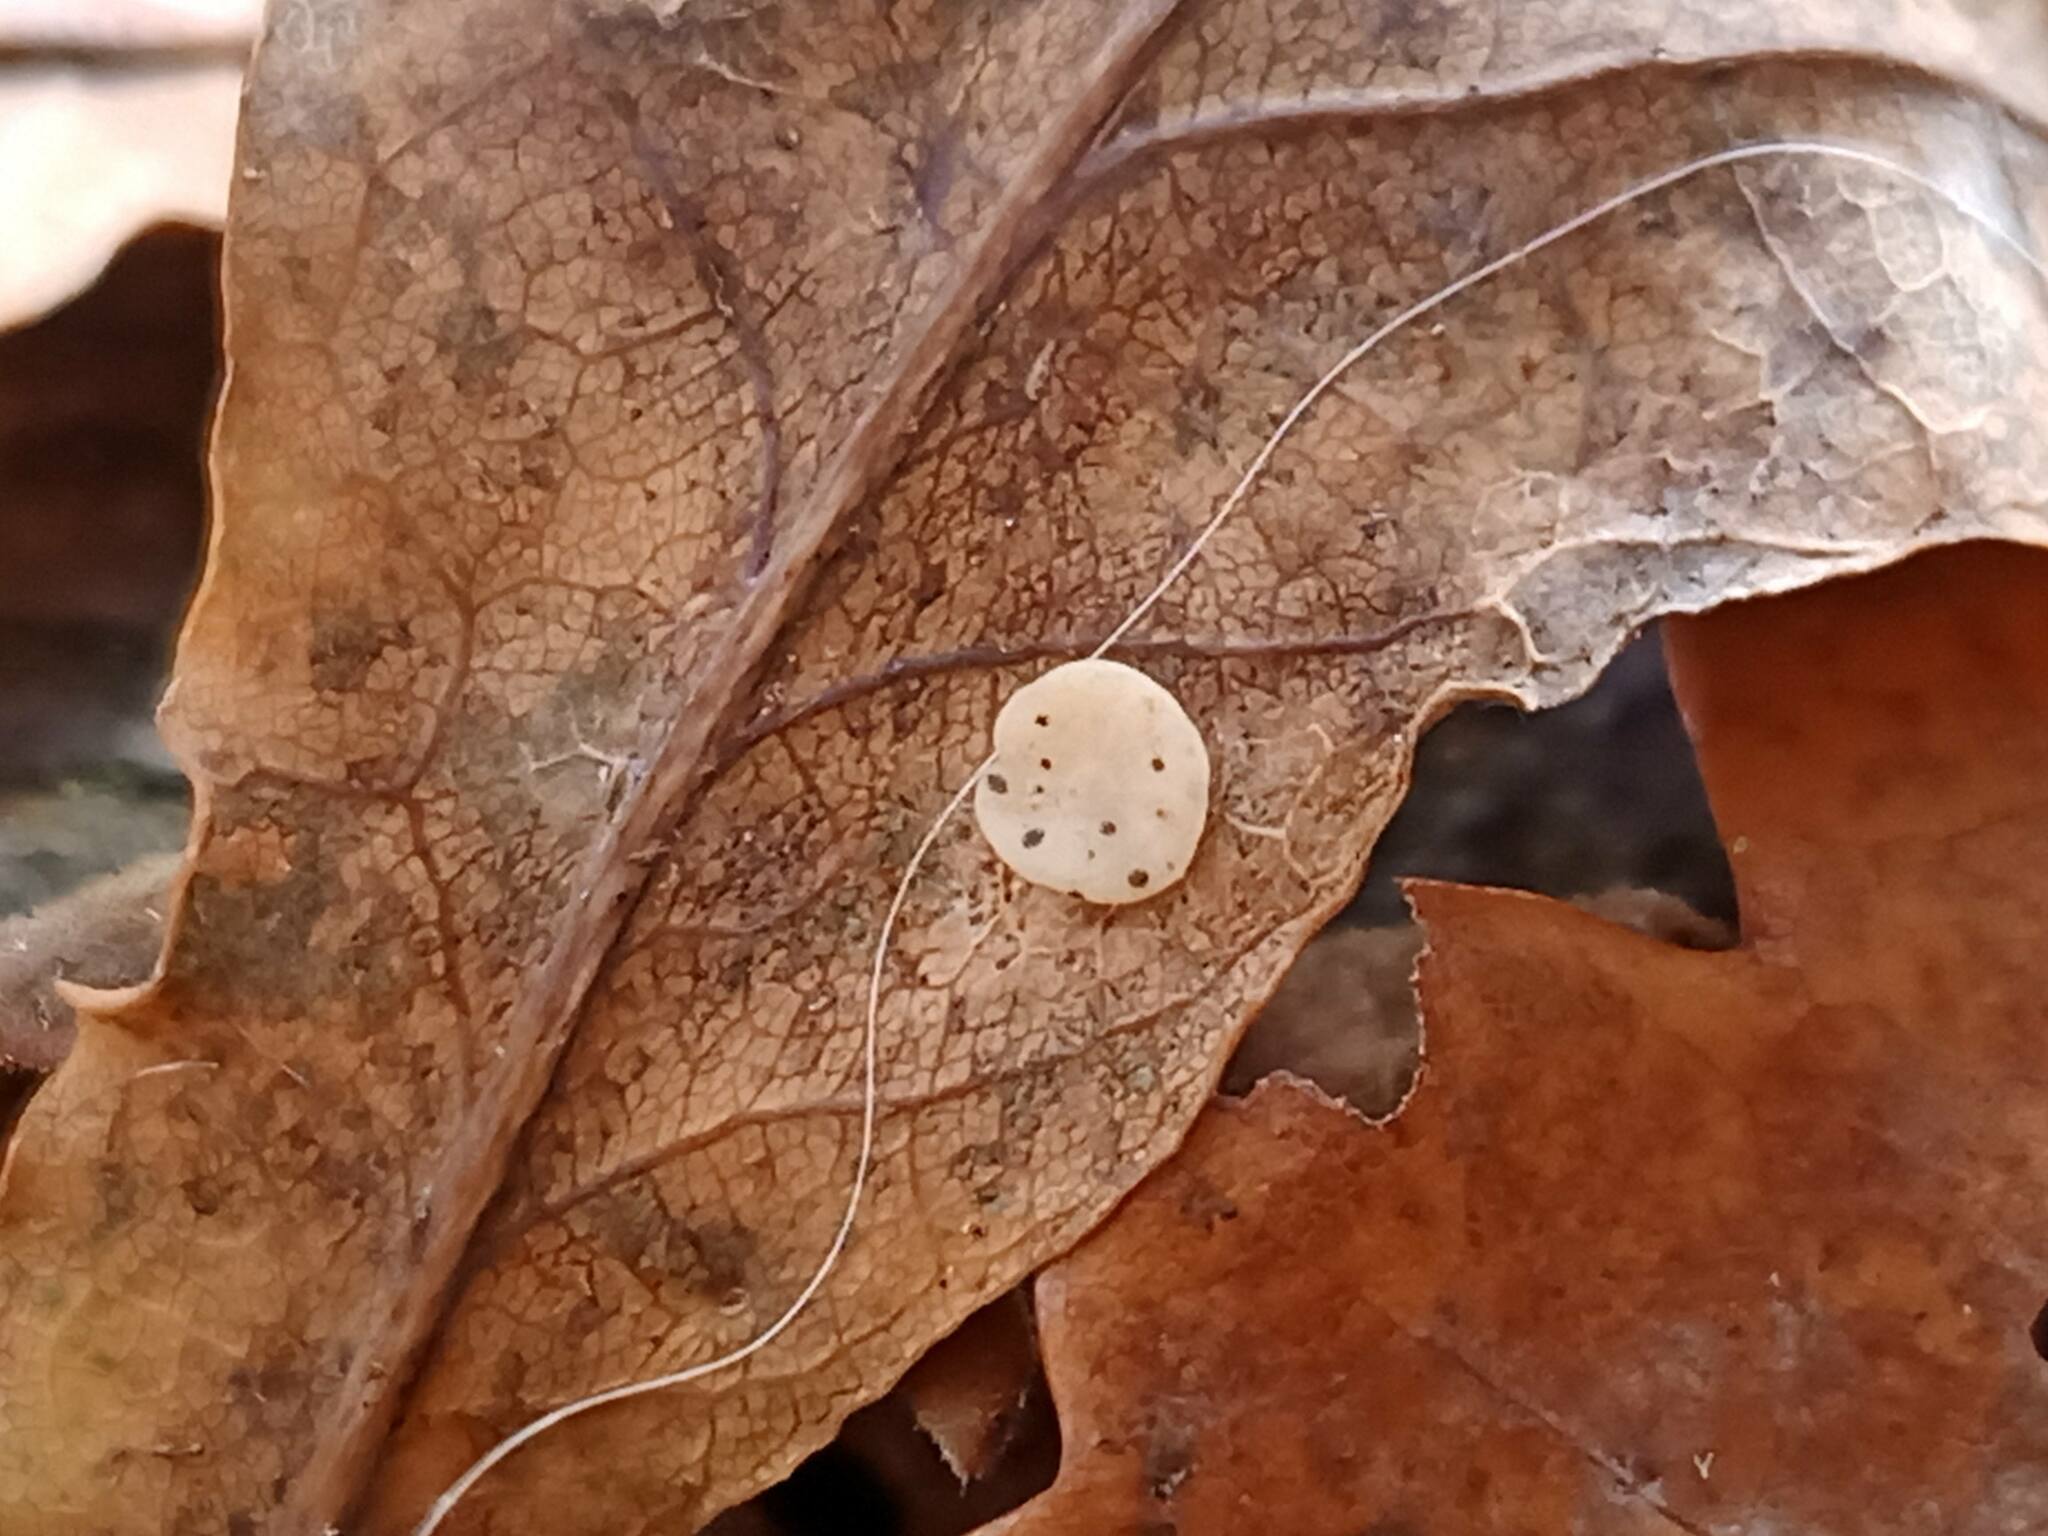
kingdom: Animalia
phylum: Arthropoda
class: Insecta
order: Hymenoptera
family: Cynipidae
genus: Neuroterus
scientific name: Neuroterus albipes
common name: Smooth spangle gall
